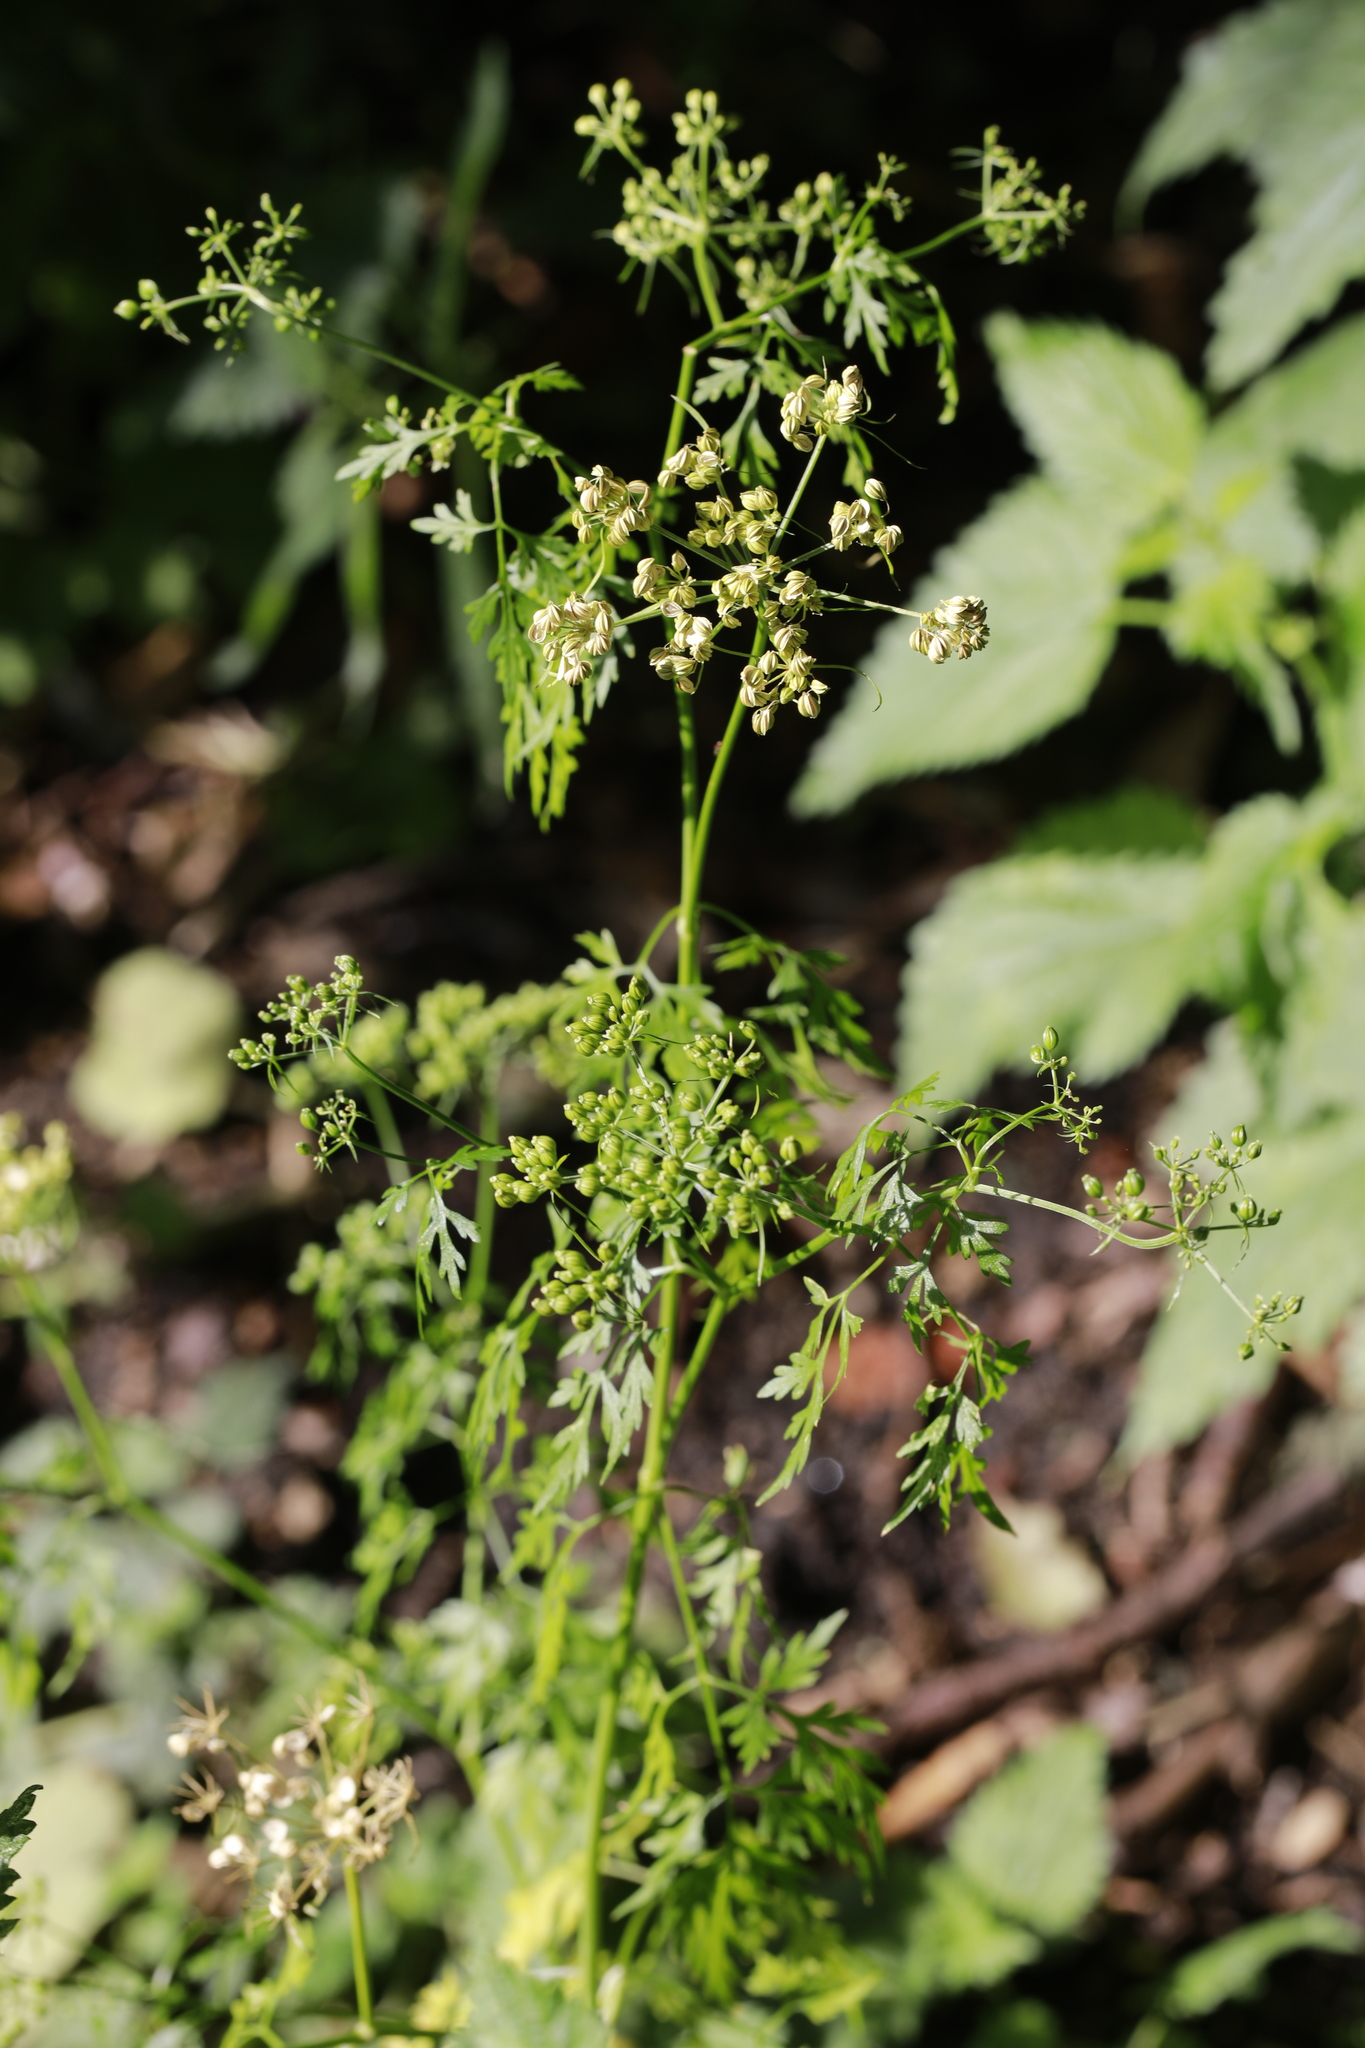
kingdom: Plantae
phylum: Tracheophyta
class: Magnoliopsida
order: Apiales
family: Apiaceae
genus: Aethusa
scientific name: Aethusa cynapium
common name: Fool's parsley
